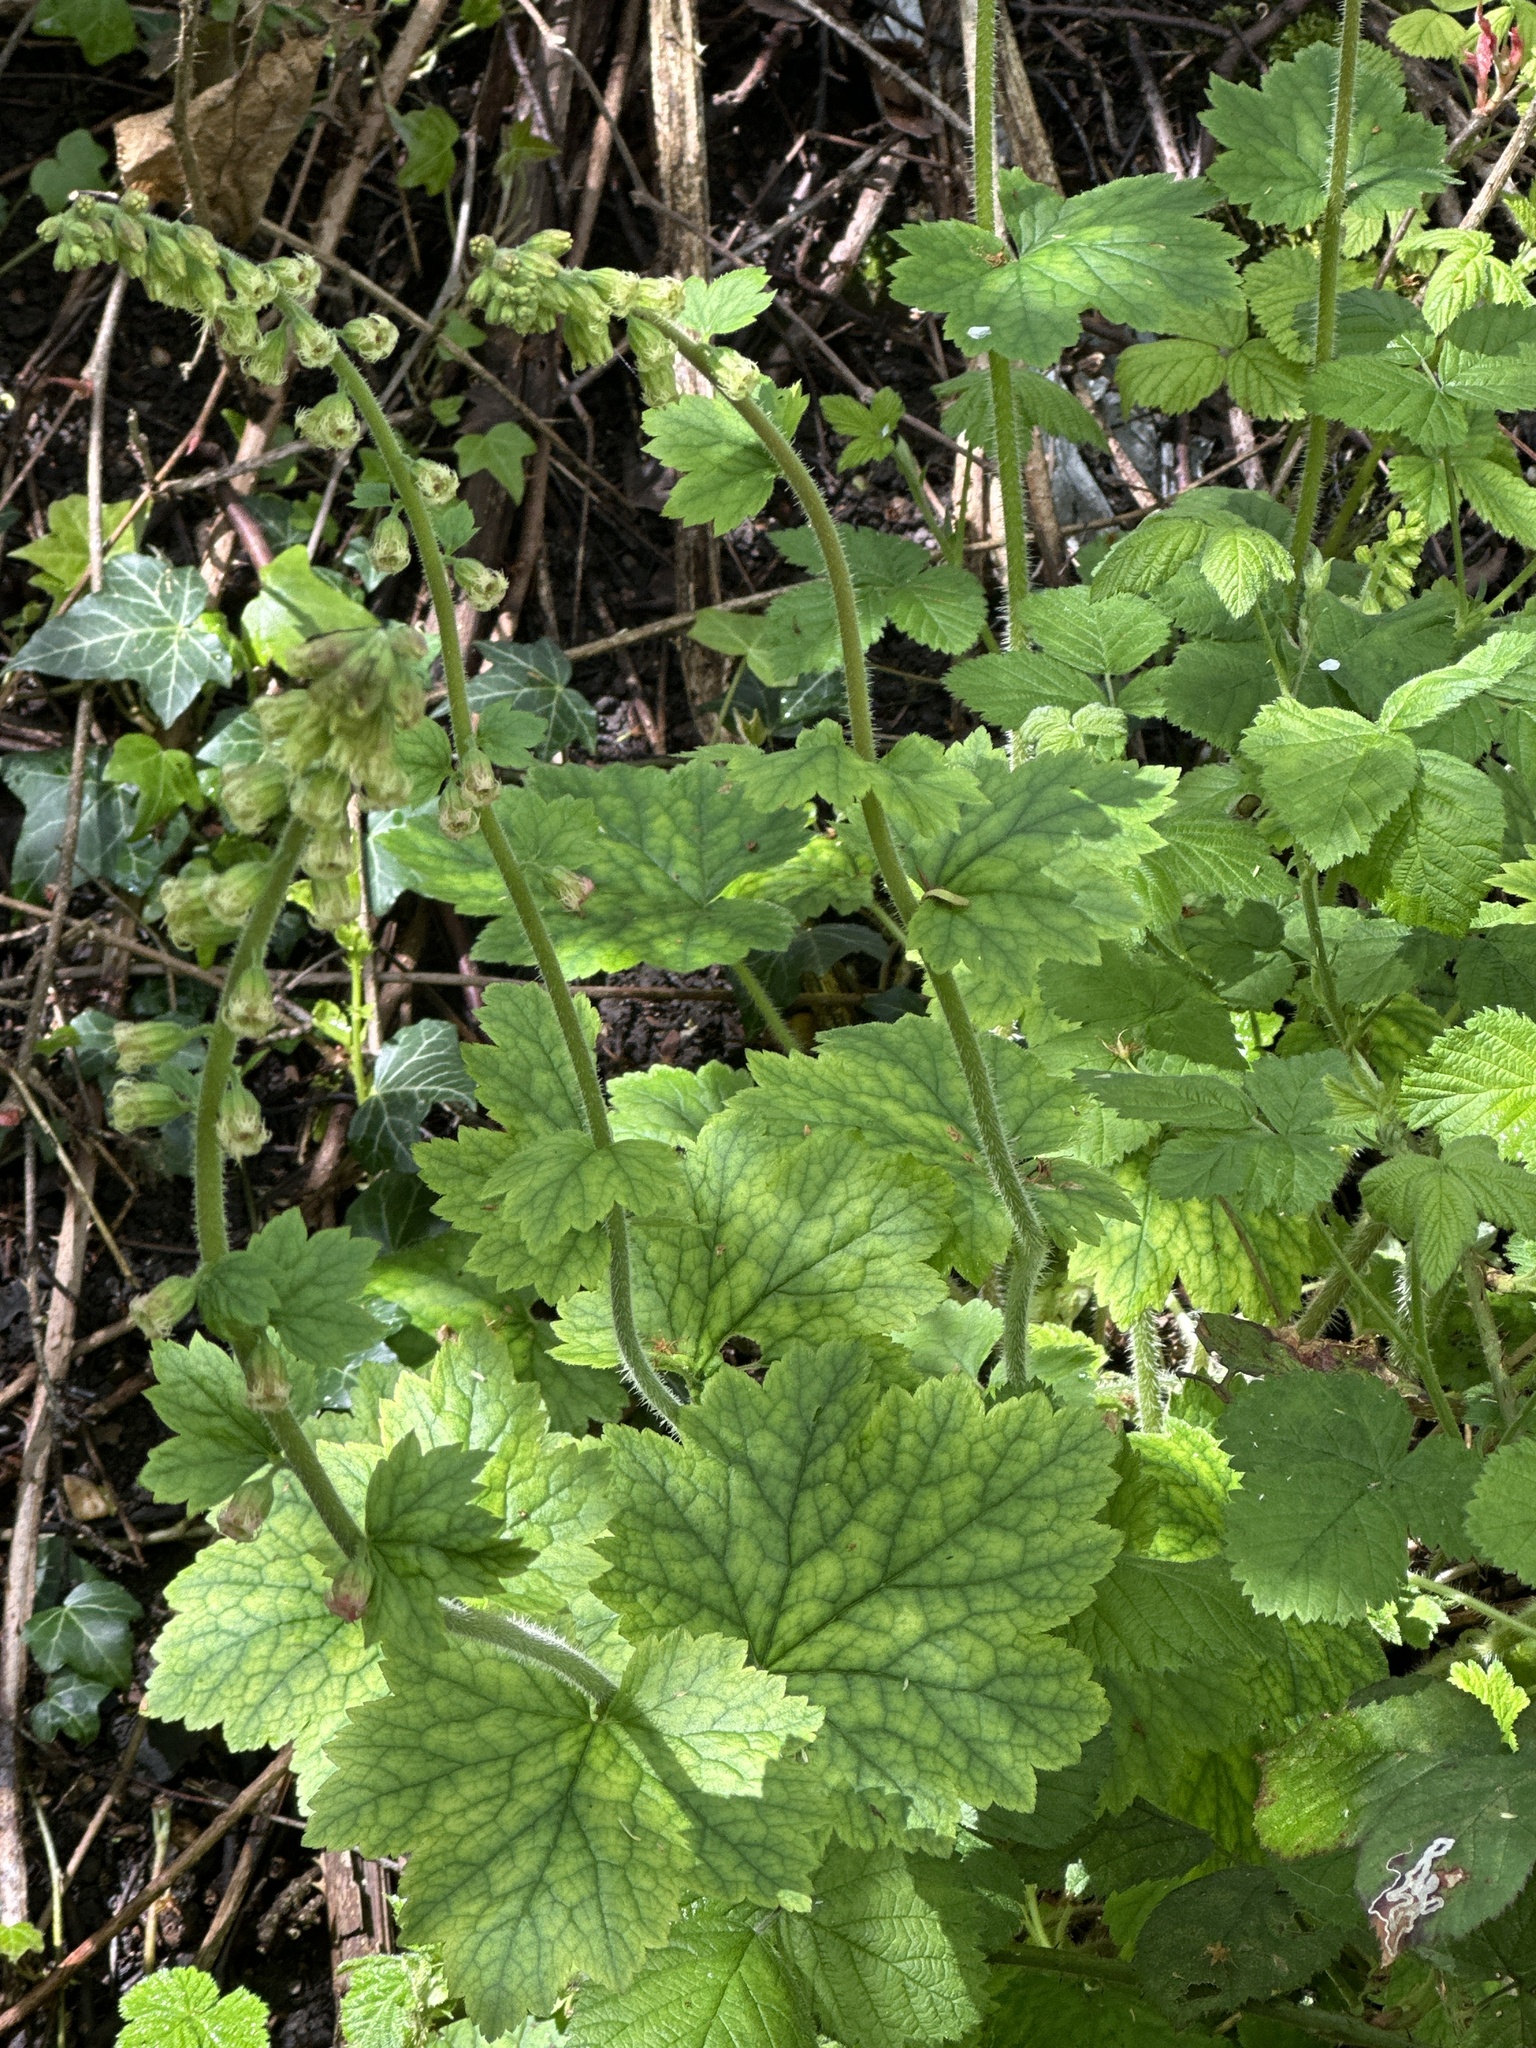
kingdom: Plantae
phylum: Tracheophyta
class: Magnoliopsida
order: Saxifragales
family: Saxifragaceae
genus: Tellima
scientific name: Tellima grandiflora
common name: Fringecups
